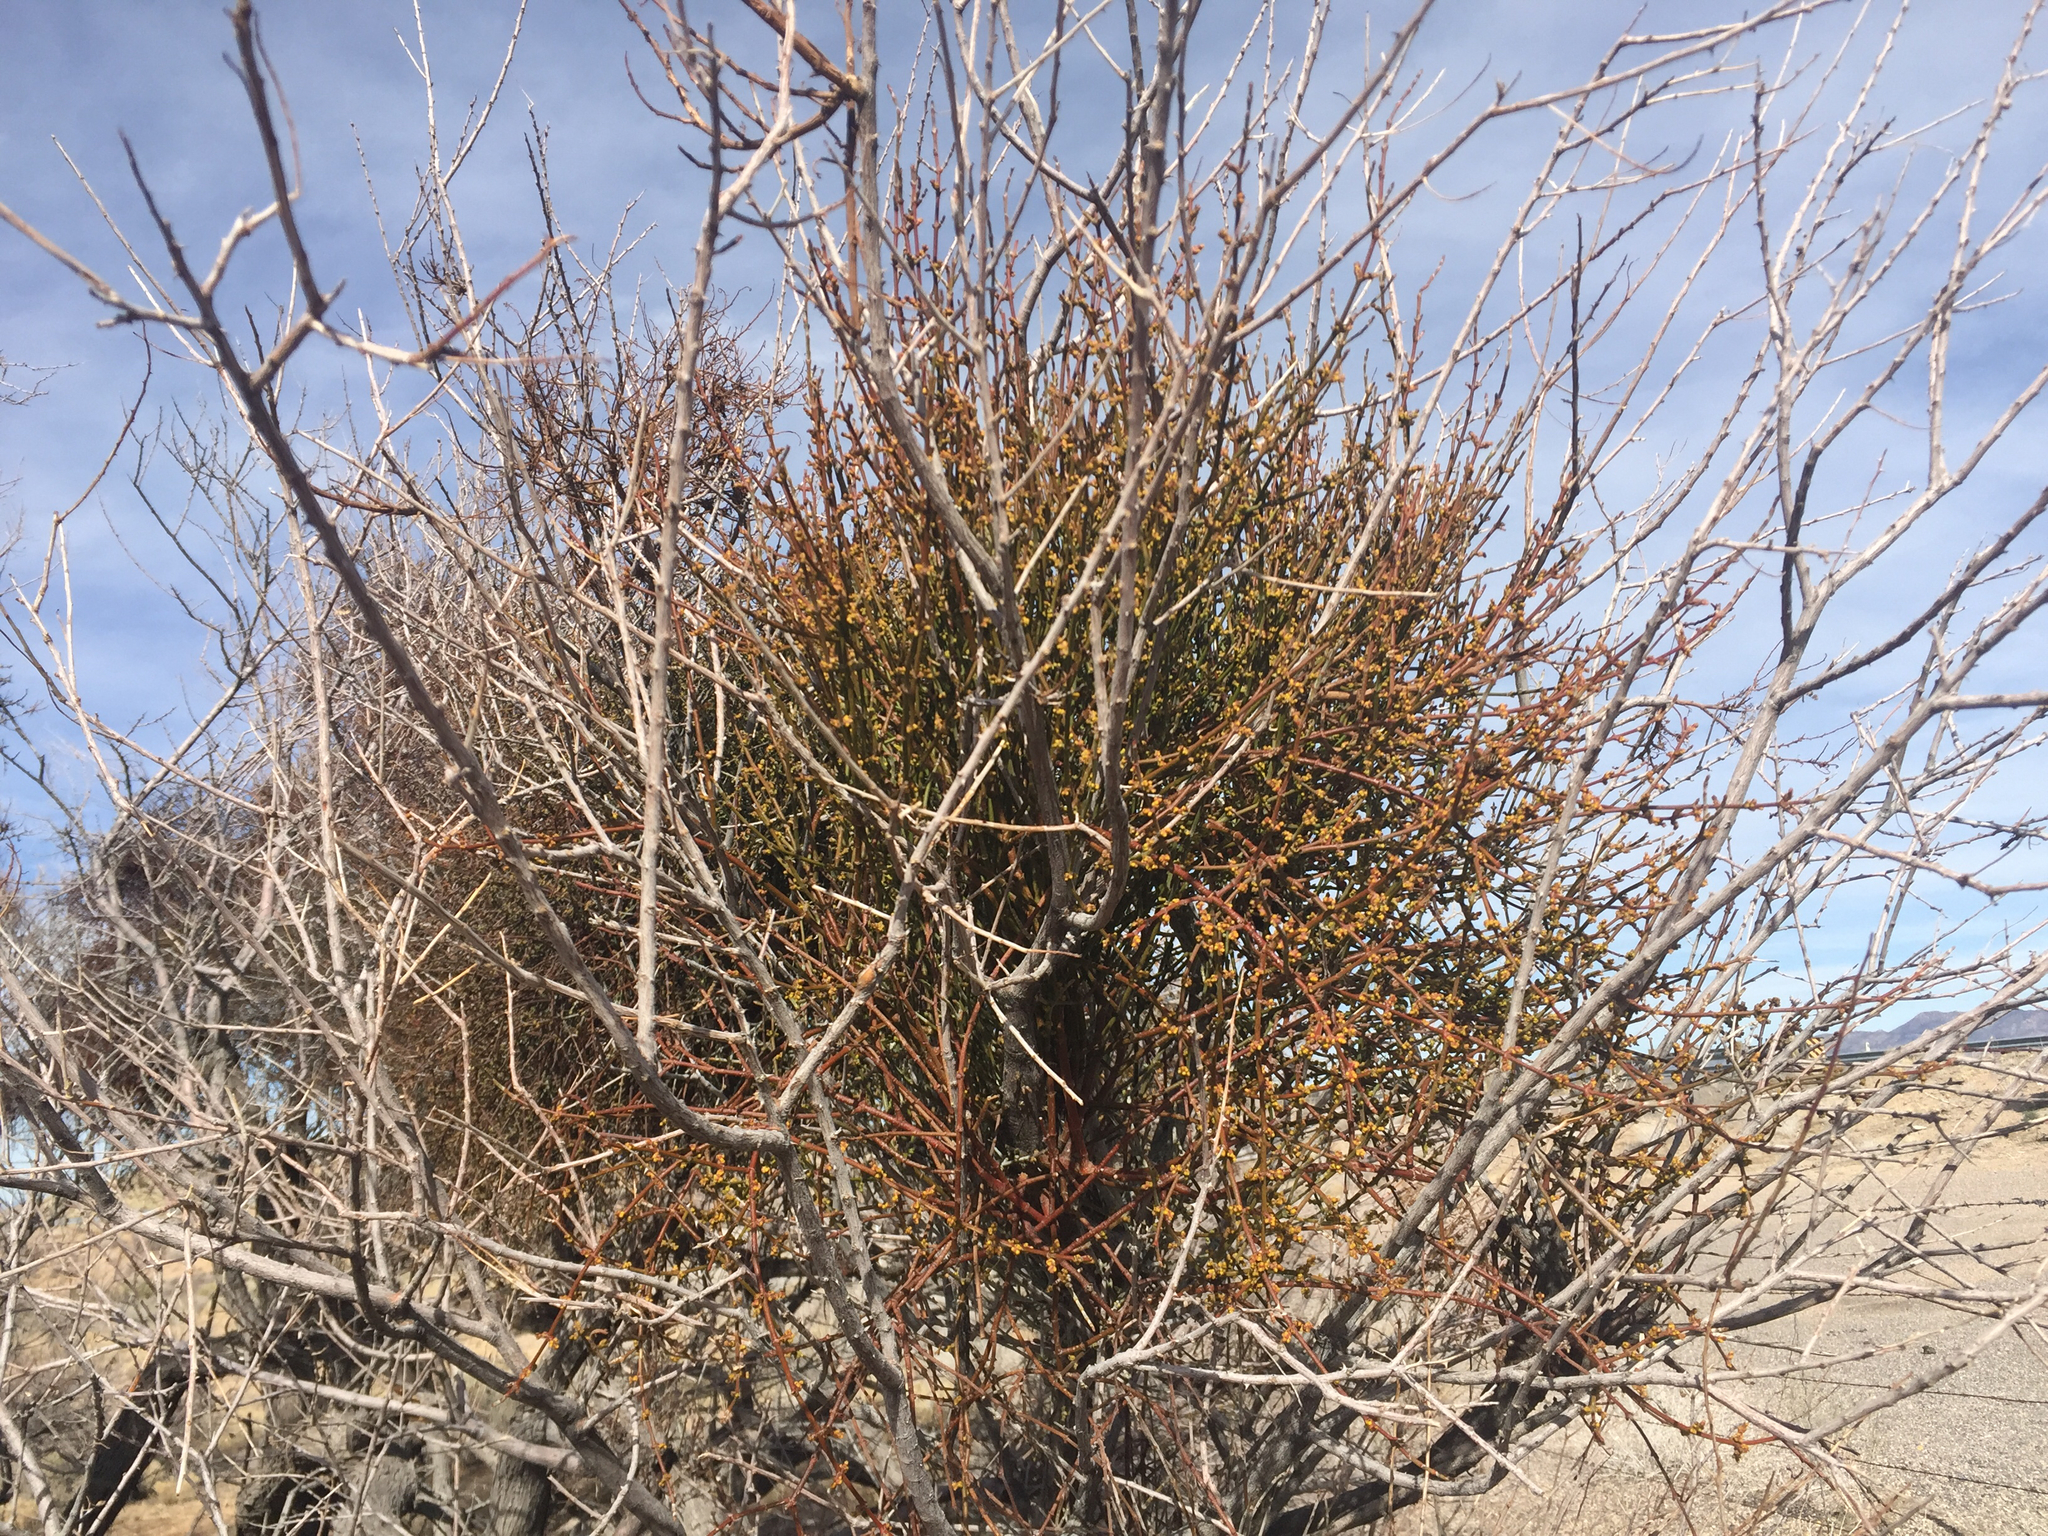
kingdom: Plantae
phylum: Tracheophyta
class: Magnoliopsida
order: Santalales
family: Viscaceae
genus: Phoradendron
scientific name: Phoradendron californicum
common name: Acacia mistletoe
